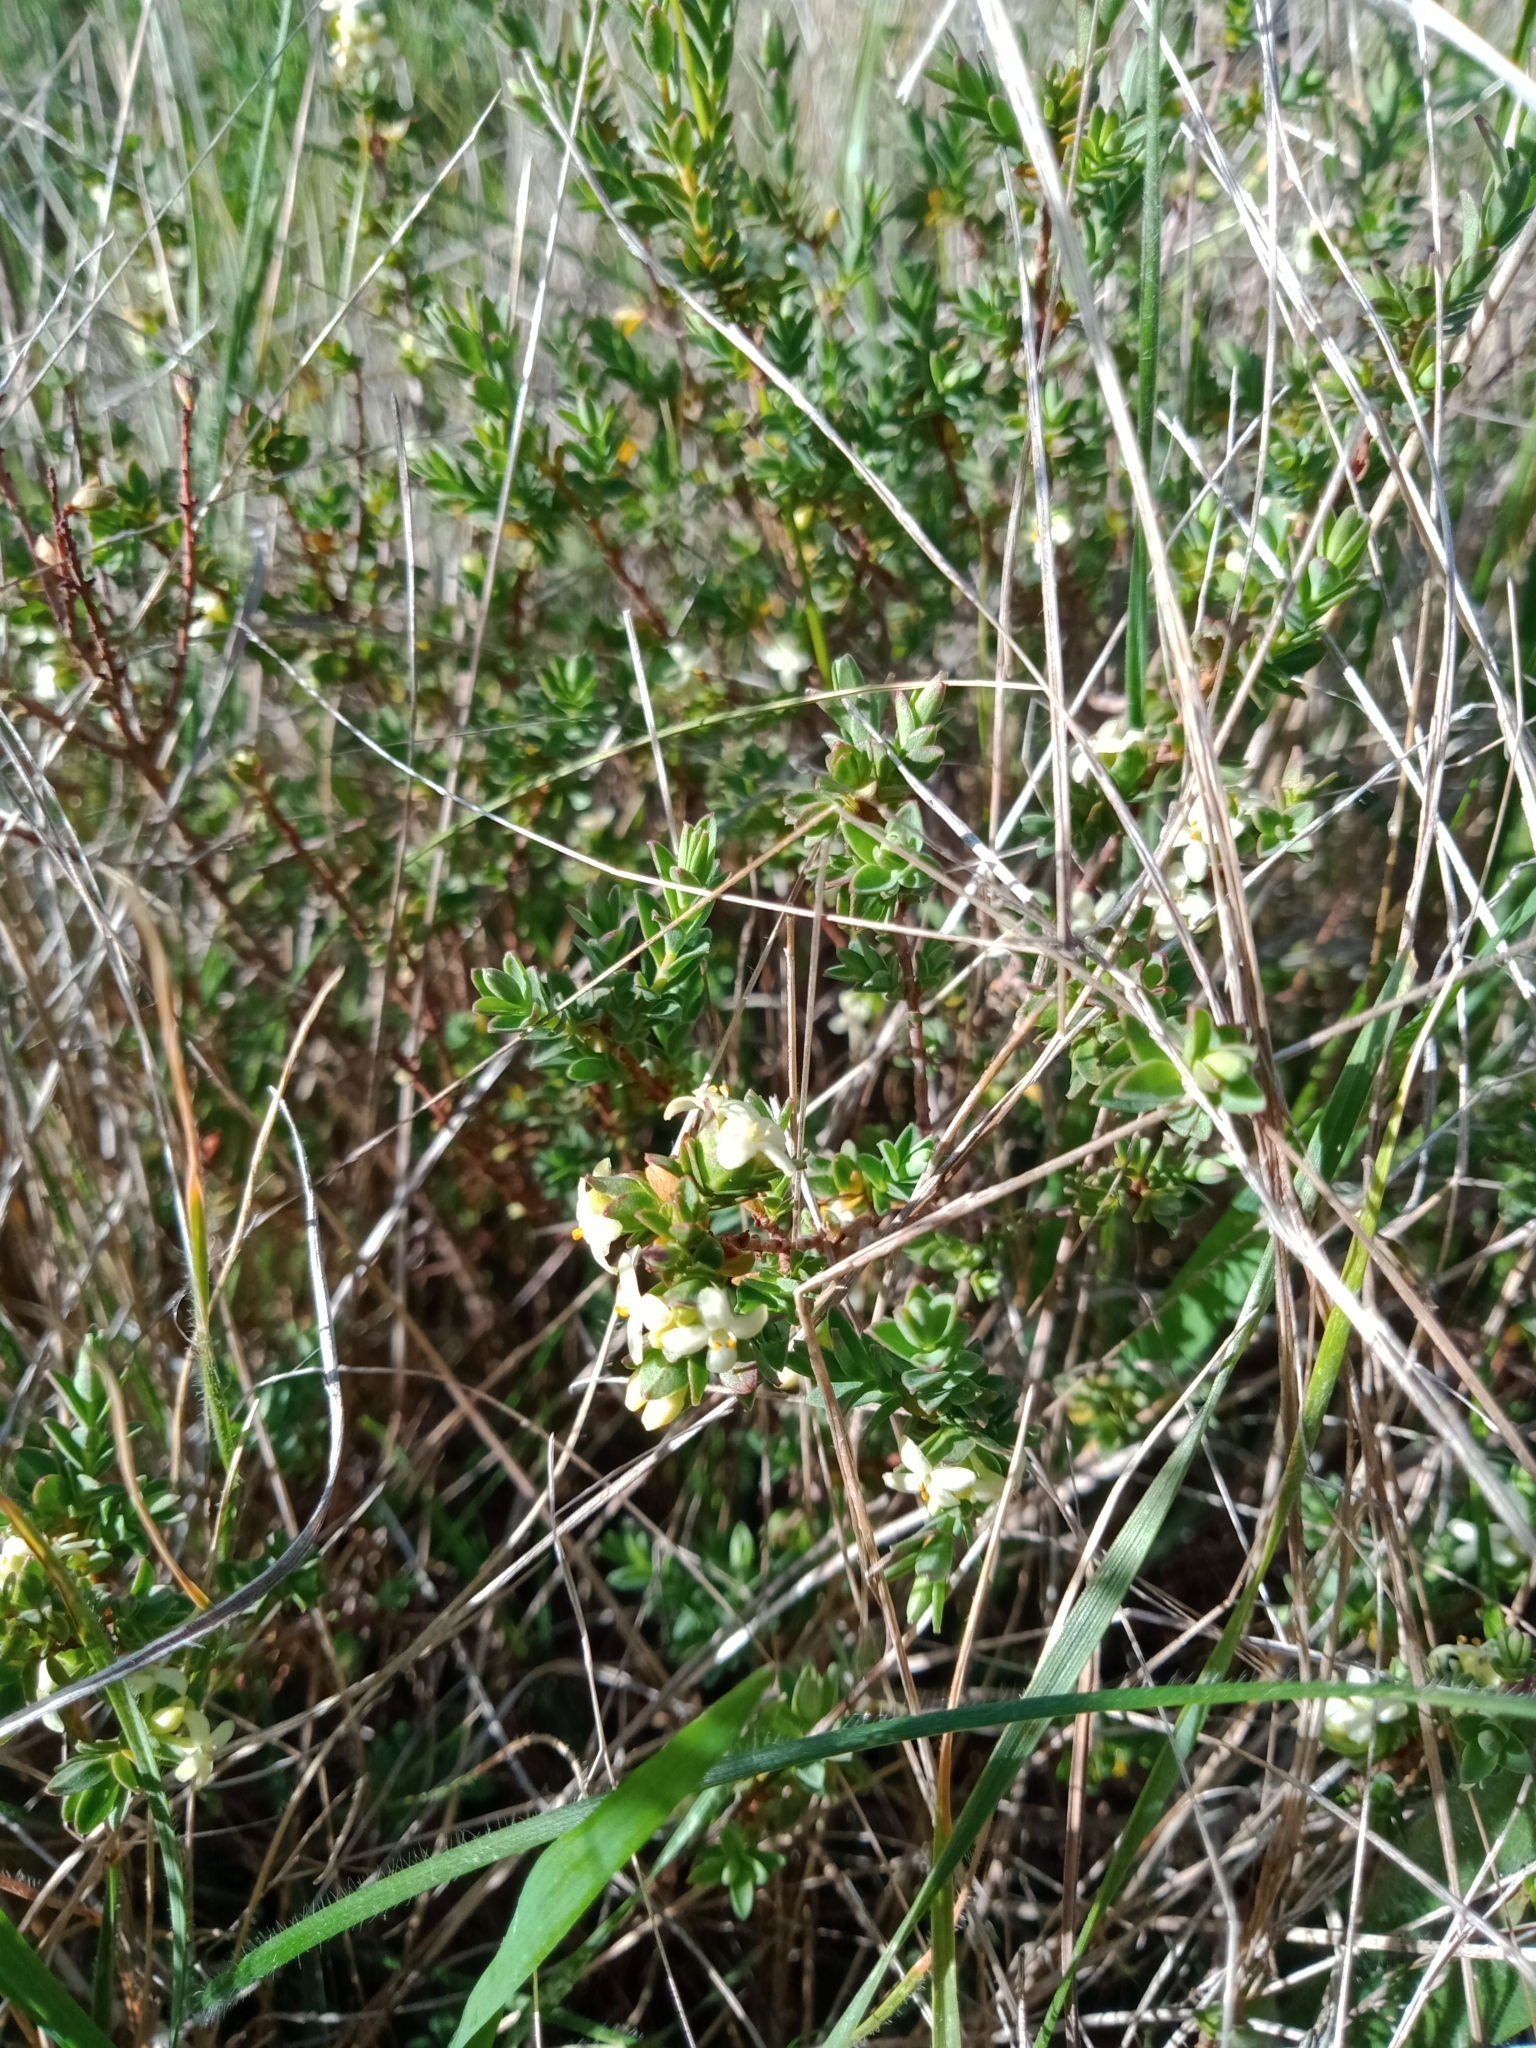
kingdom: Plantae
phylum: Tracheophyta
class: Magnoliopsida
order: Malvales
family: Thymelaeaceae
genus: Pimelea
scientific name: Pimelea spinescens
